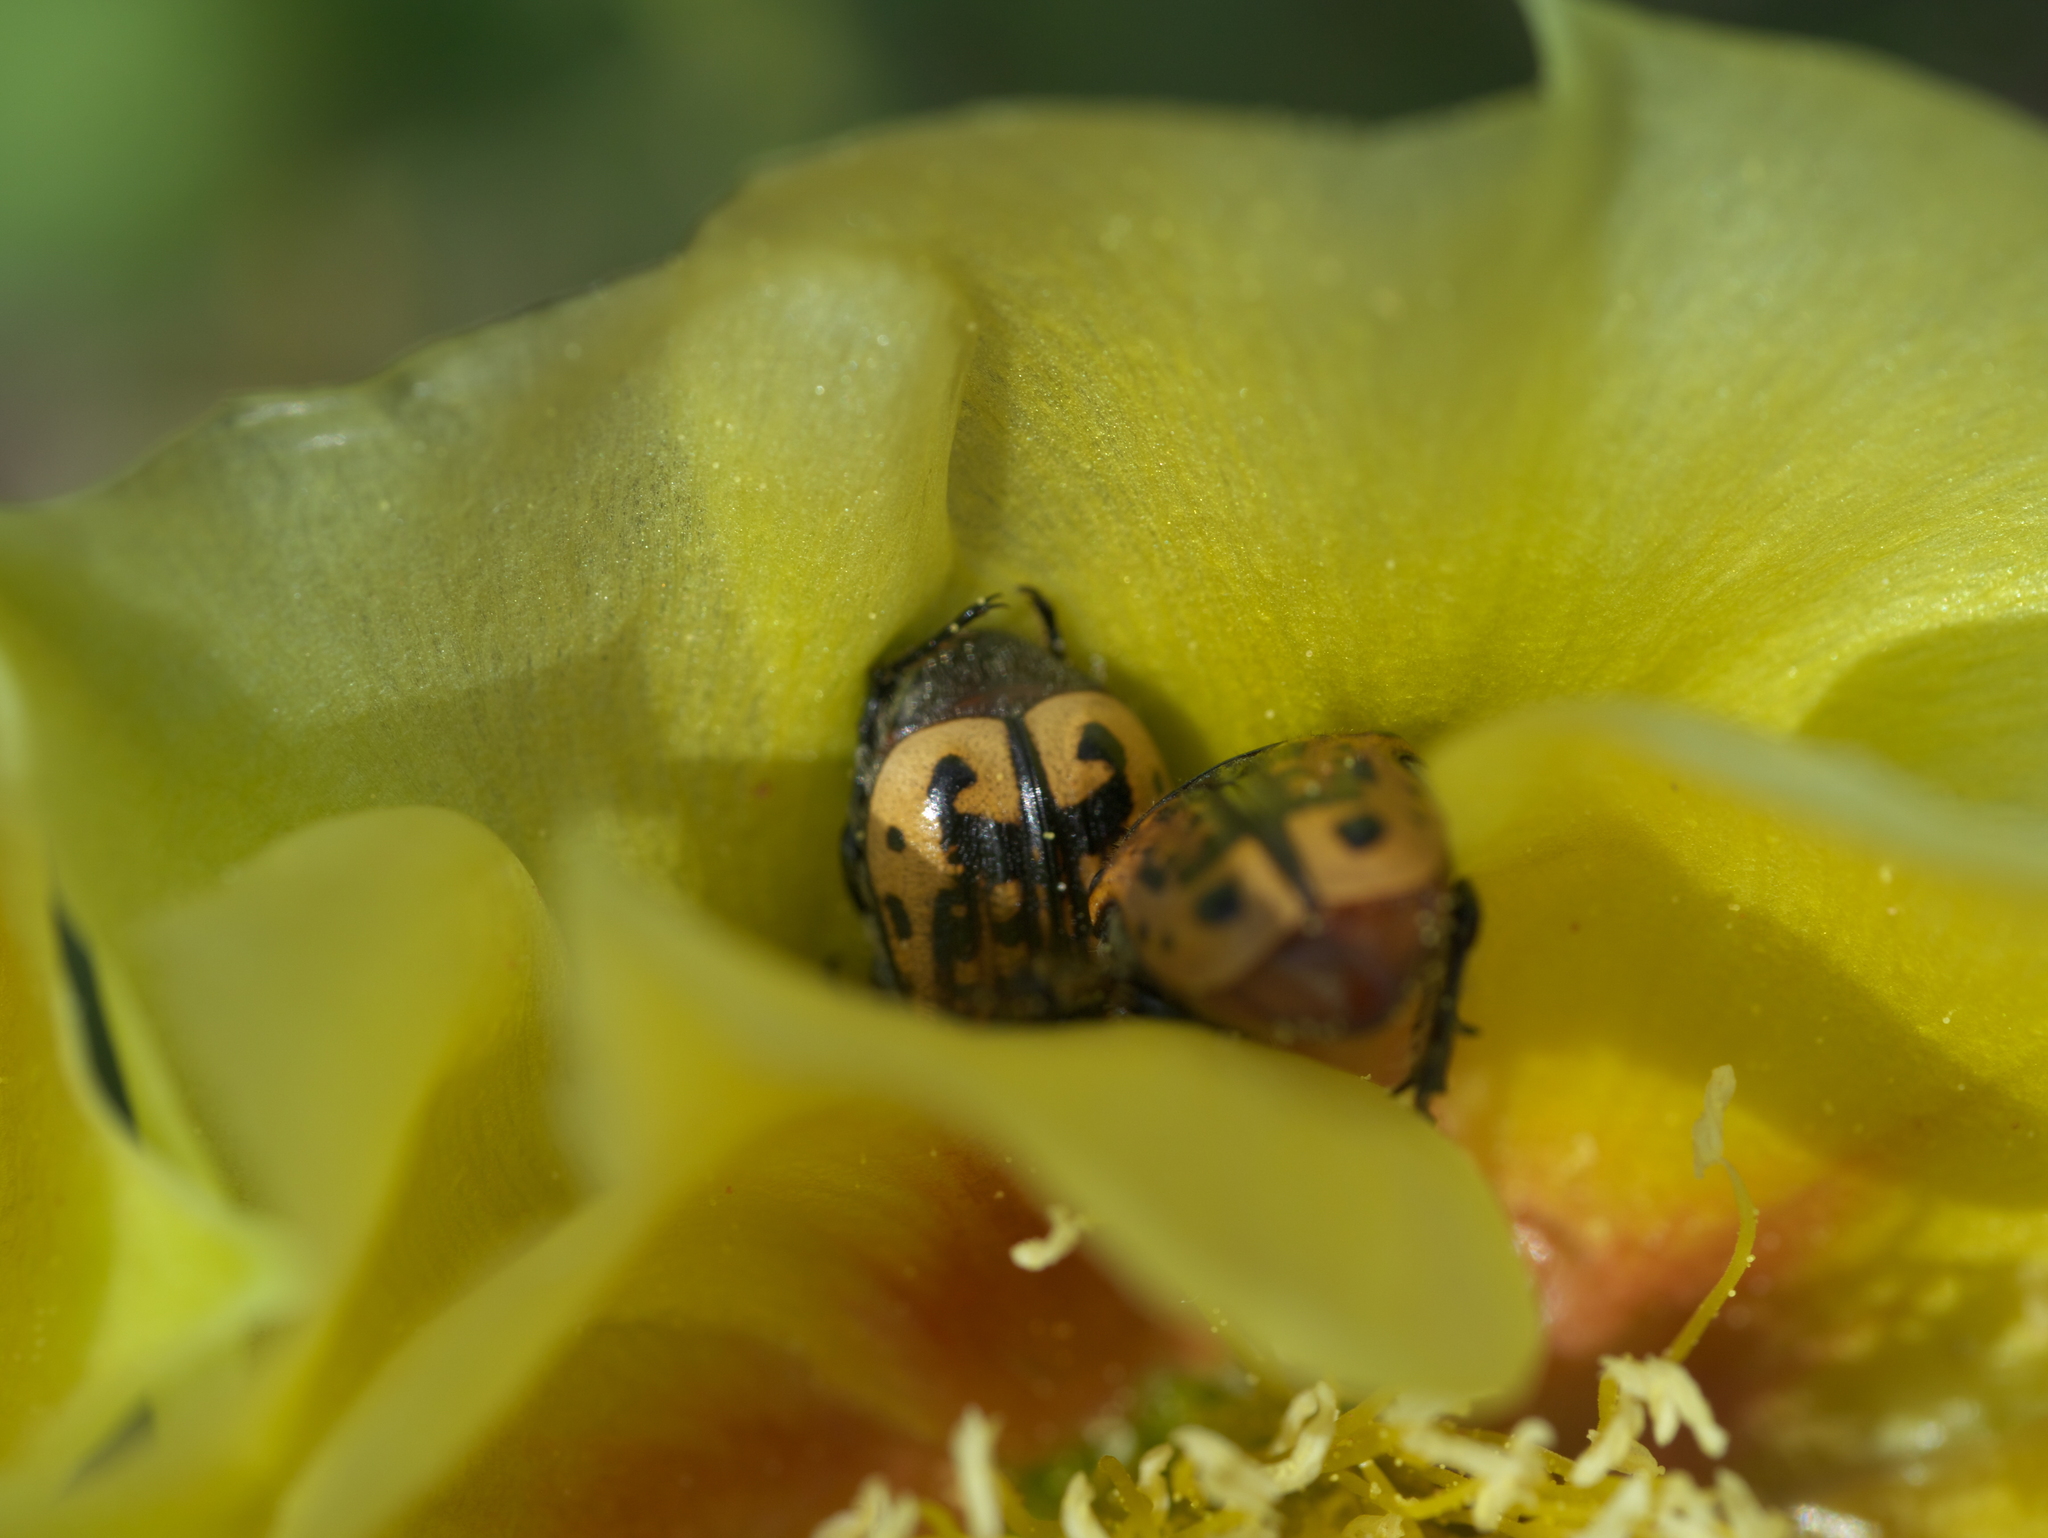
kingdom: Animalia
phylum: Arthropoda
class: Insecta
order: Coleoptera
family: Scarabaeidae
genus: Euphoria
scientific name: Euphoria kernii
